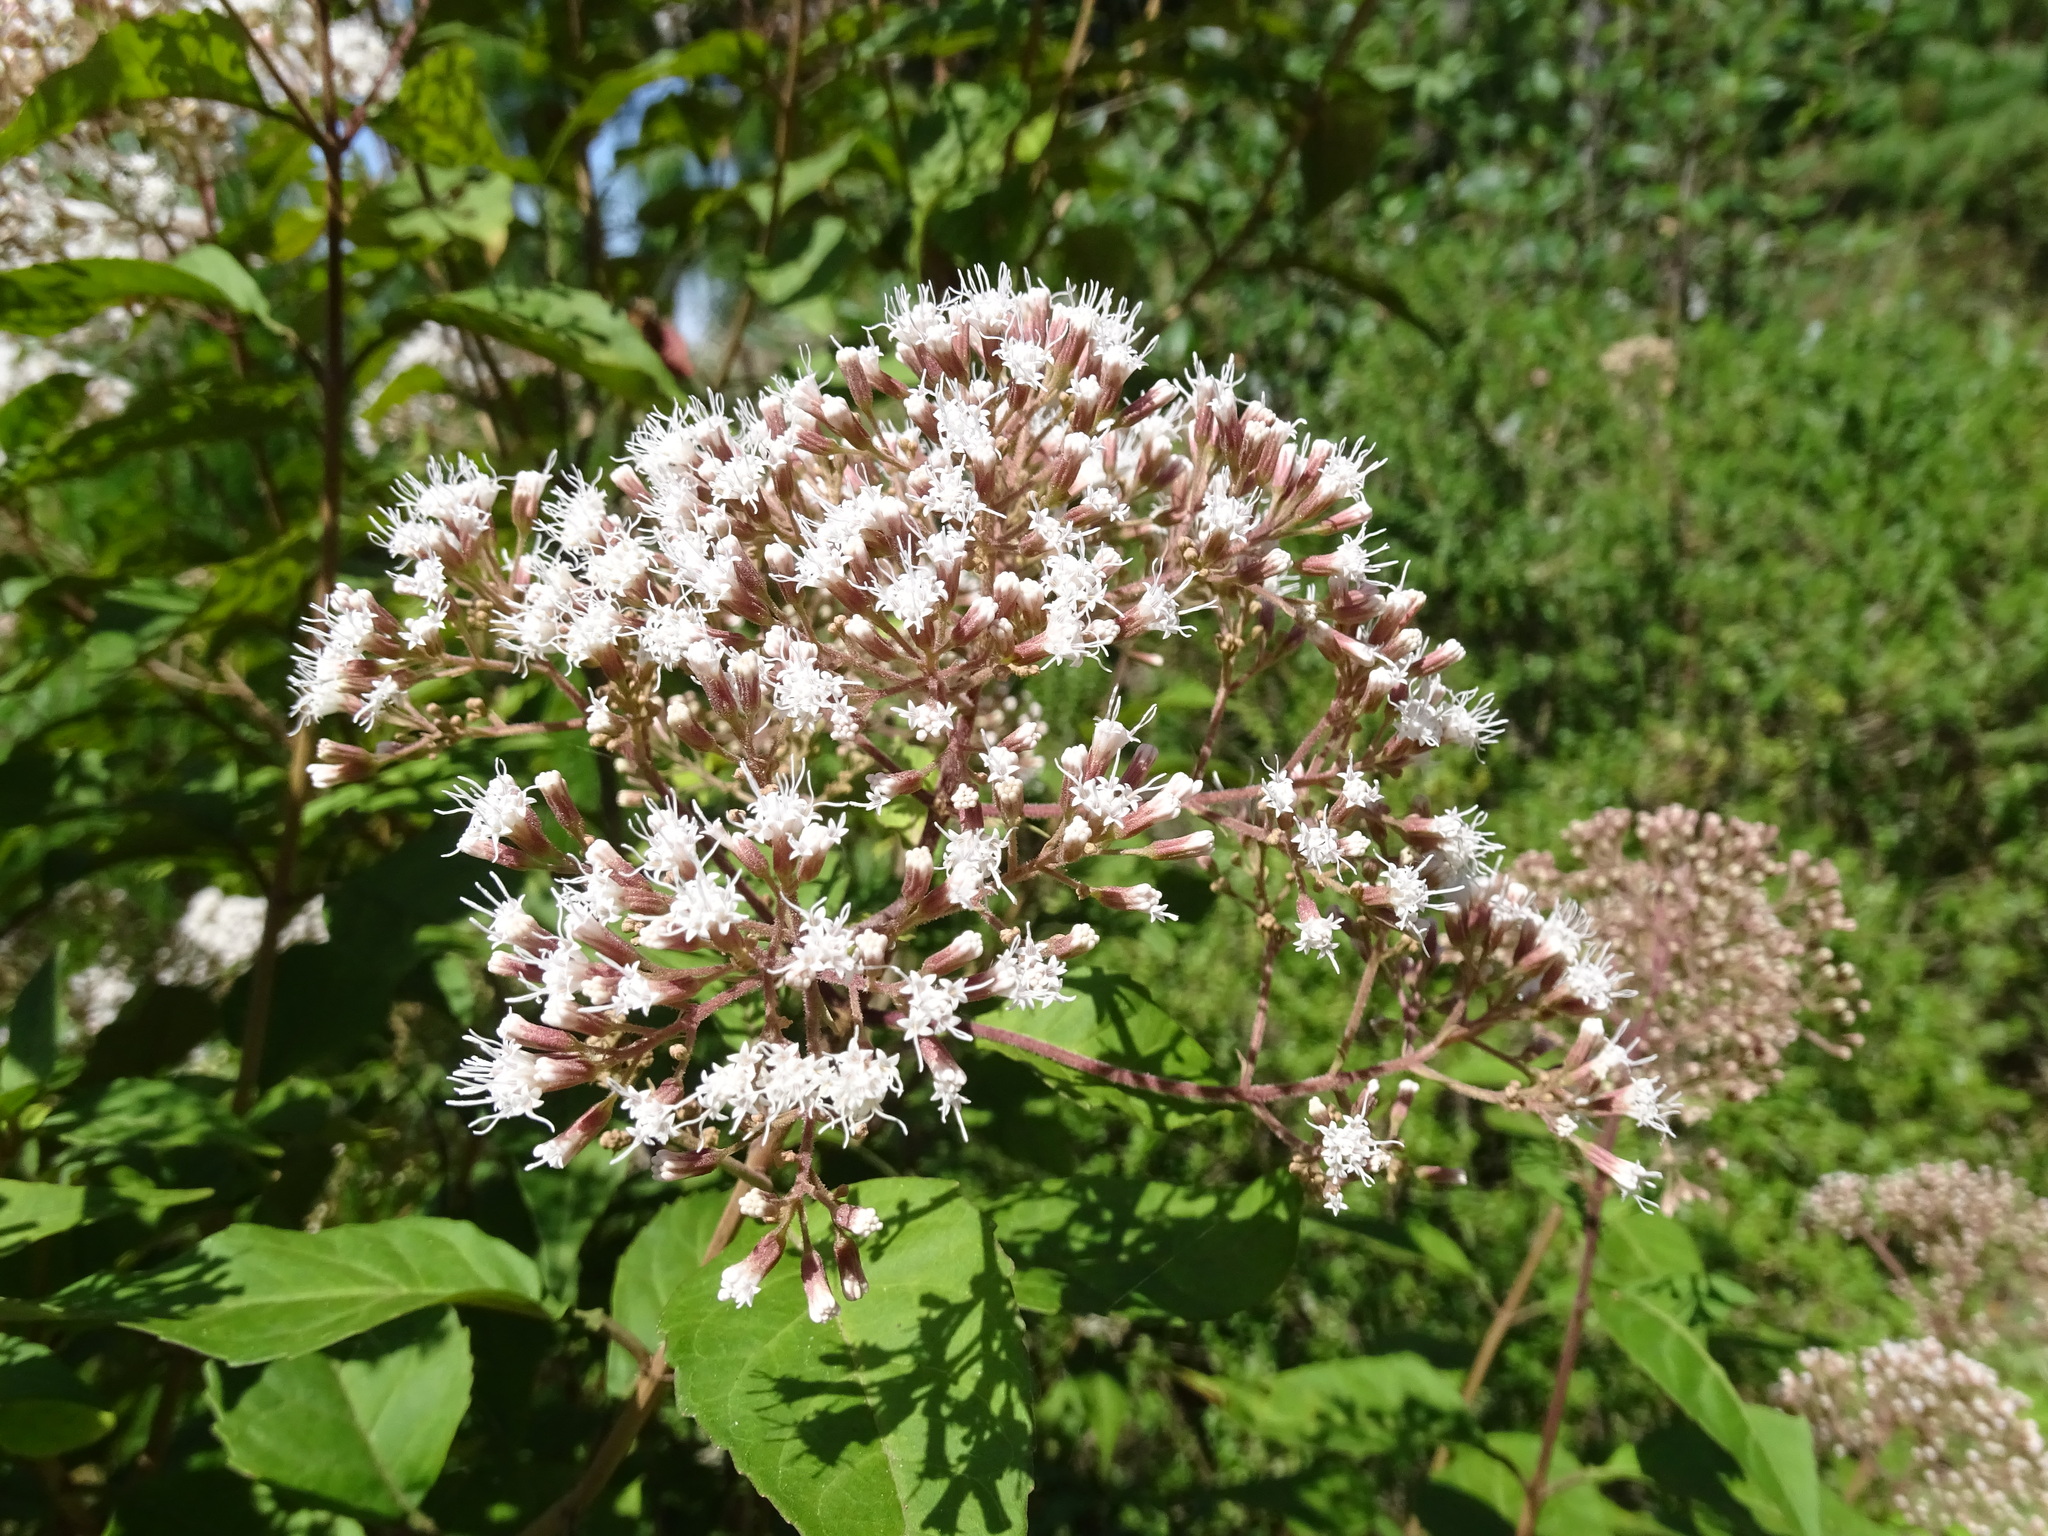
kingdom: Plantae
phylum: Tracheophyta
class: Magnoliopsida
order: Asterales
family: Asteraceae
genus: Ageratina
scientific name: Ageratina ligustrina
